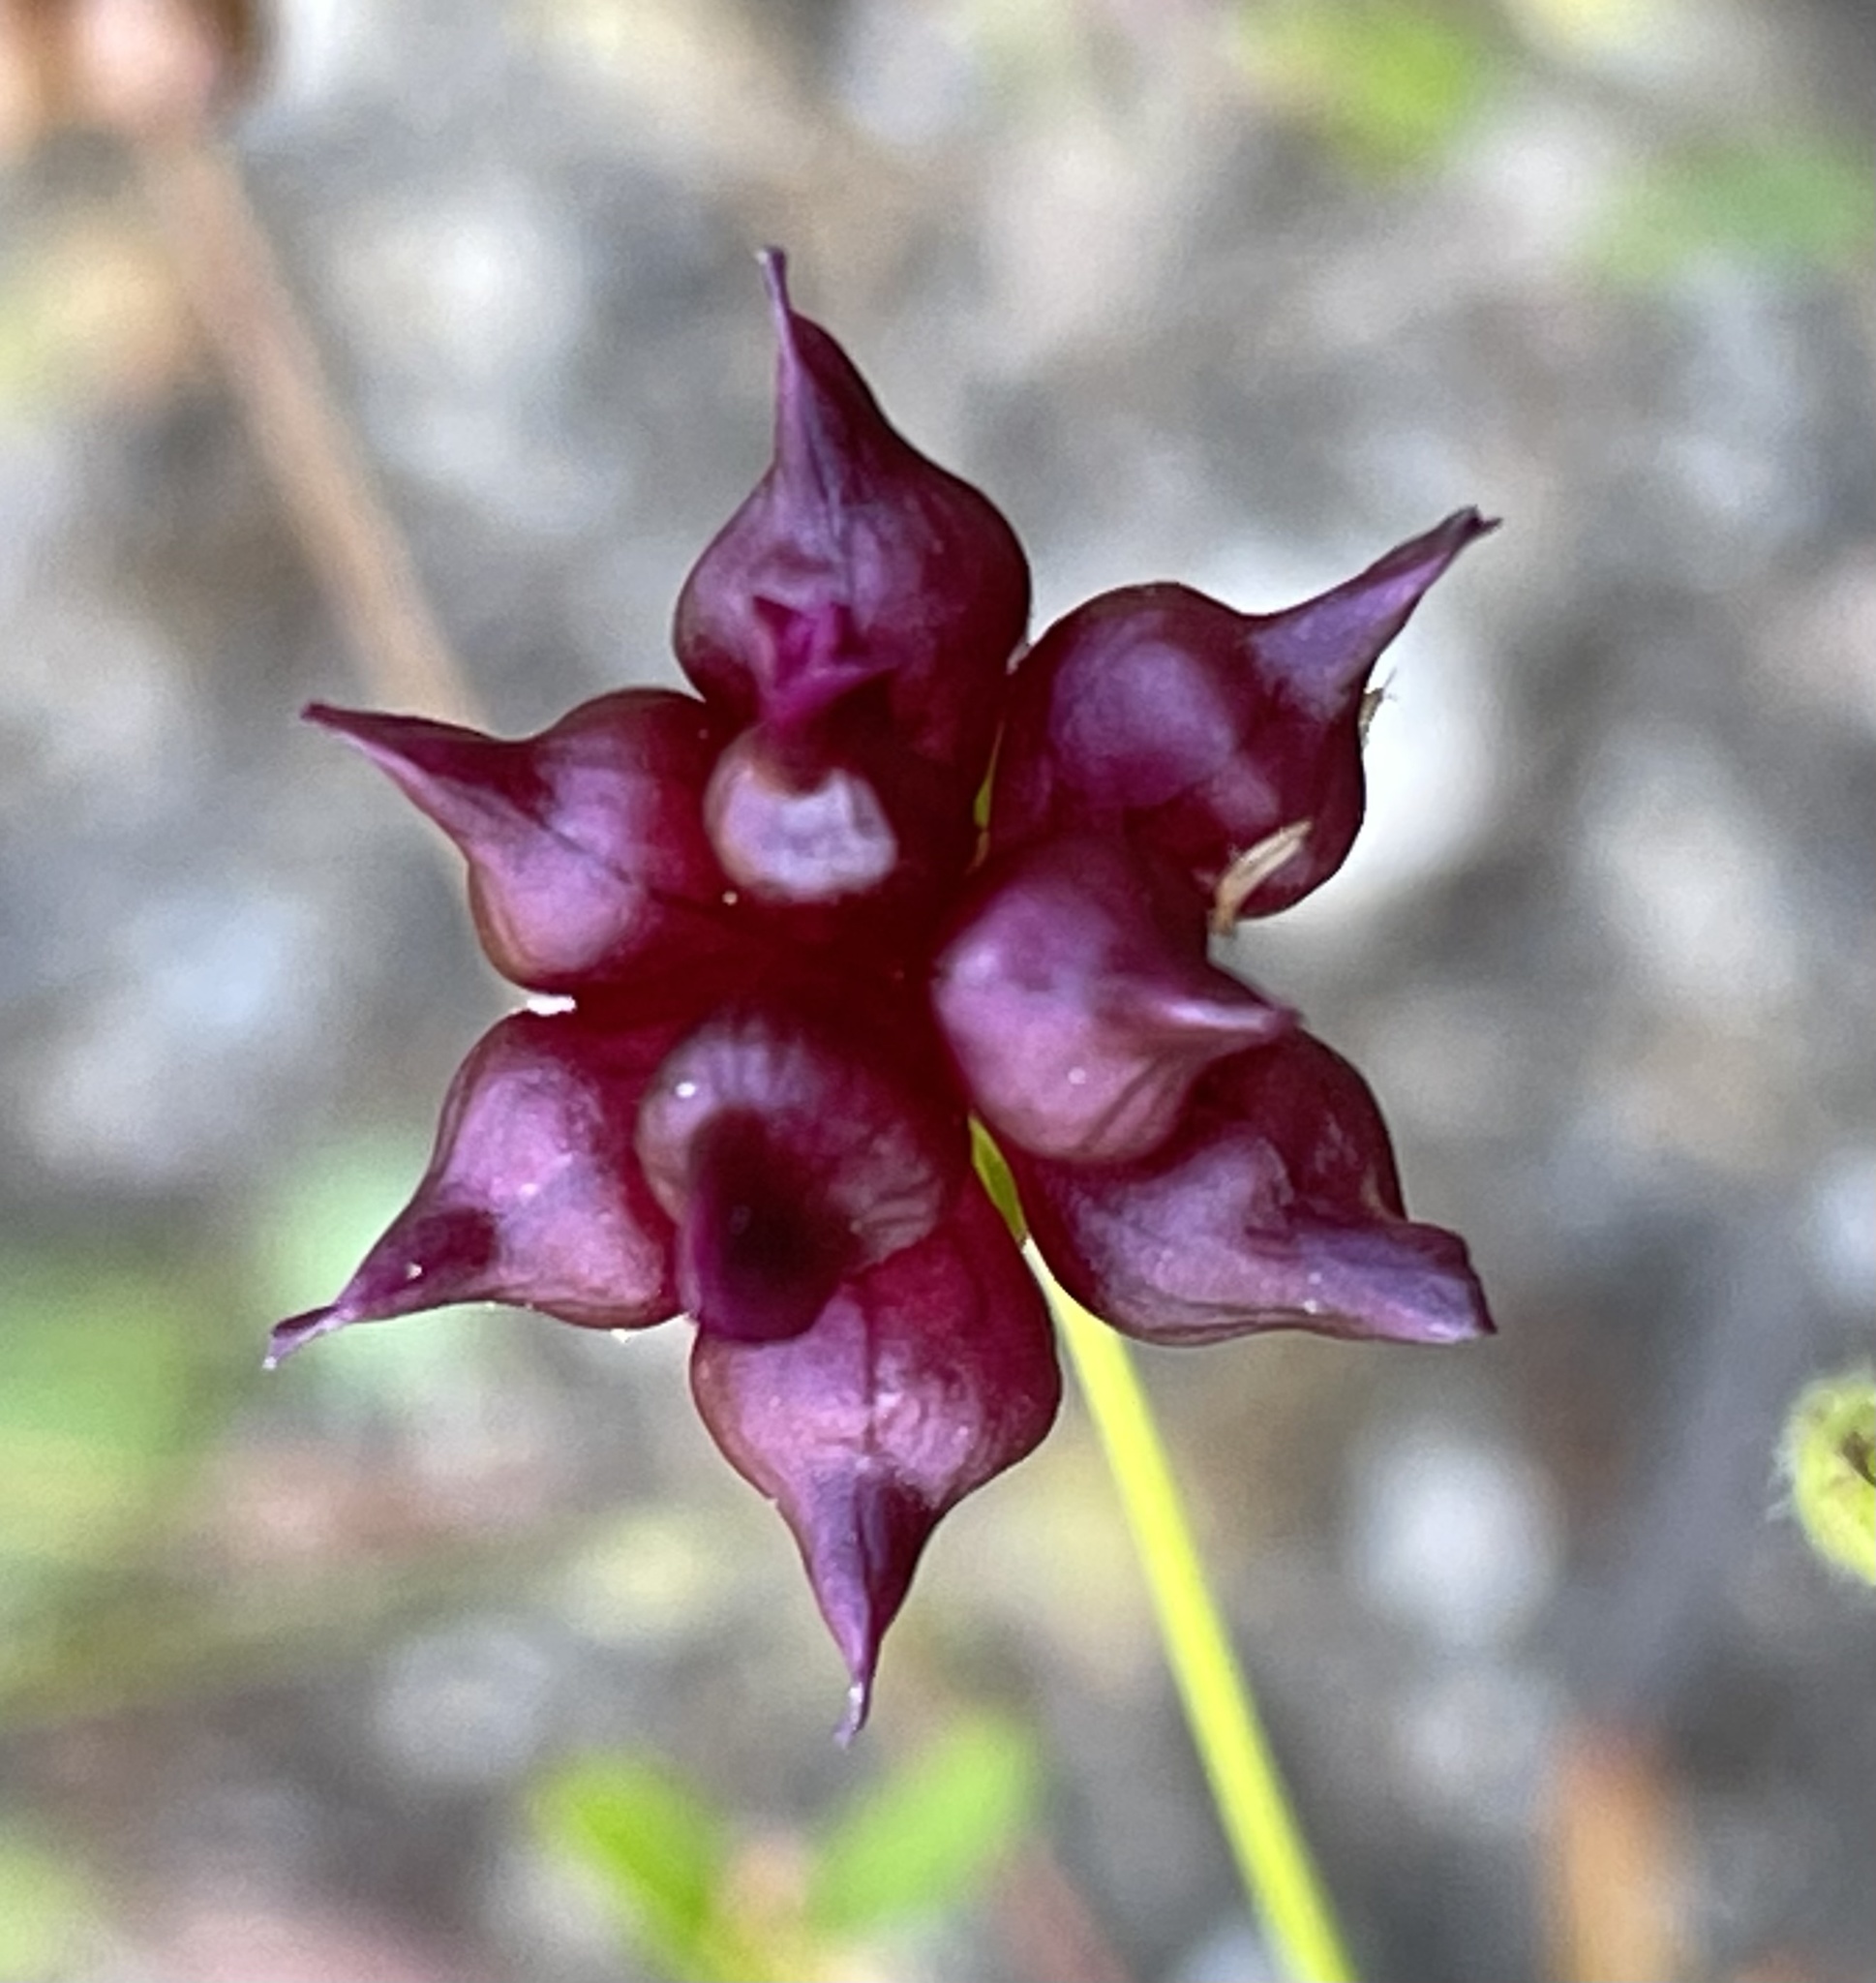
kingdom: Plantae
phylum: Tracheophyta
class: Magnoliopsida
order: Fabales
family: Fabaceae
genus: Trifolium
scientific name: Trifolium depauperatum
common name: Poverty clover
